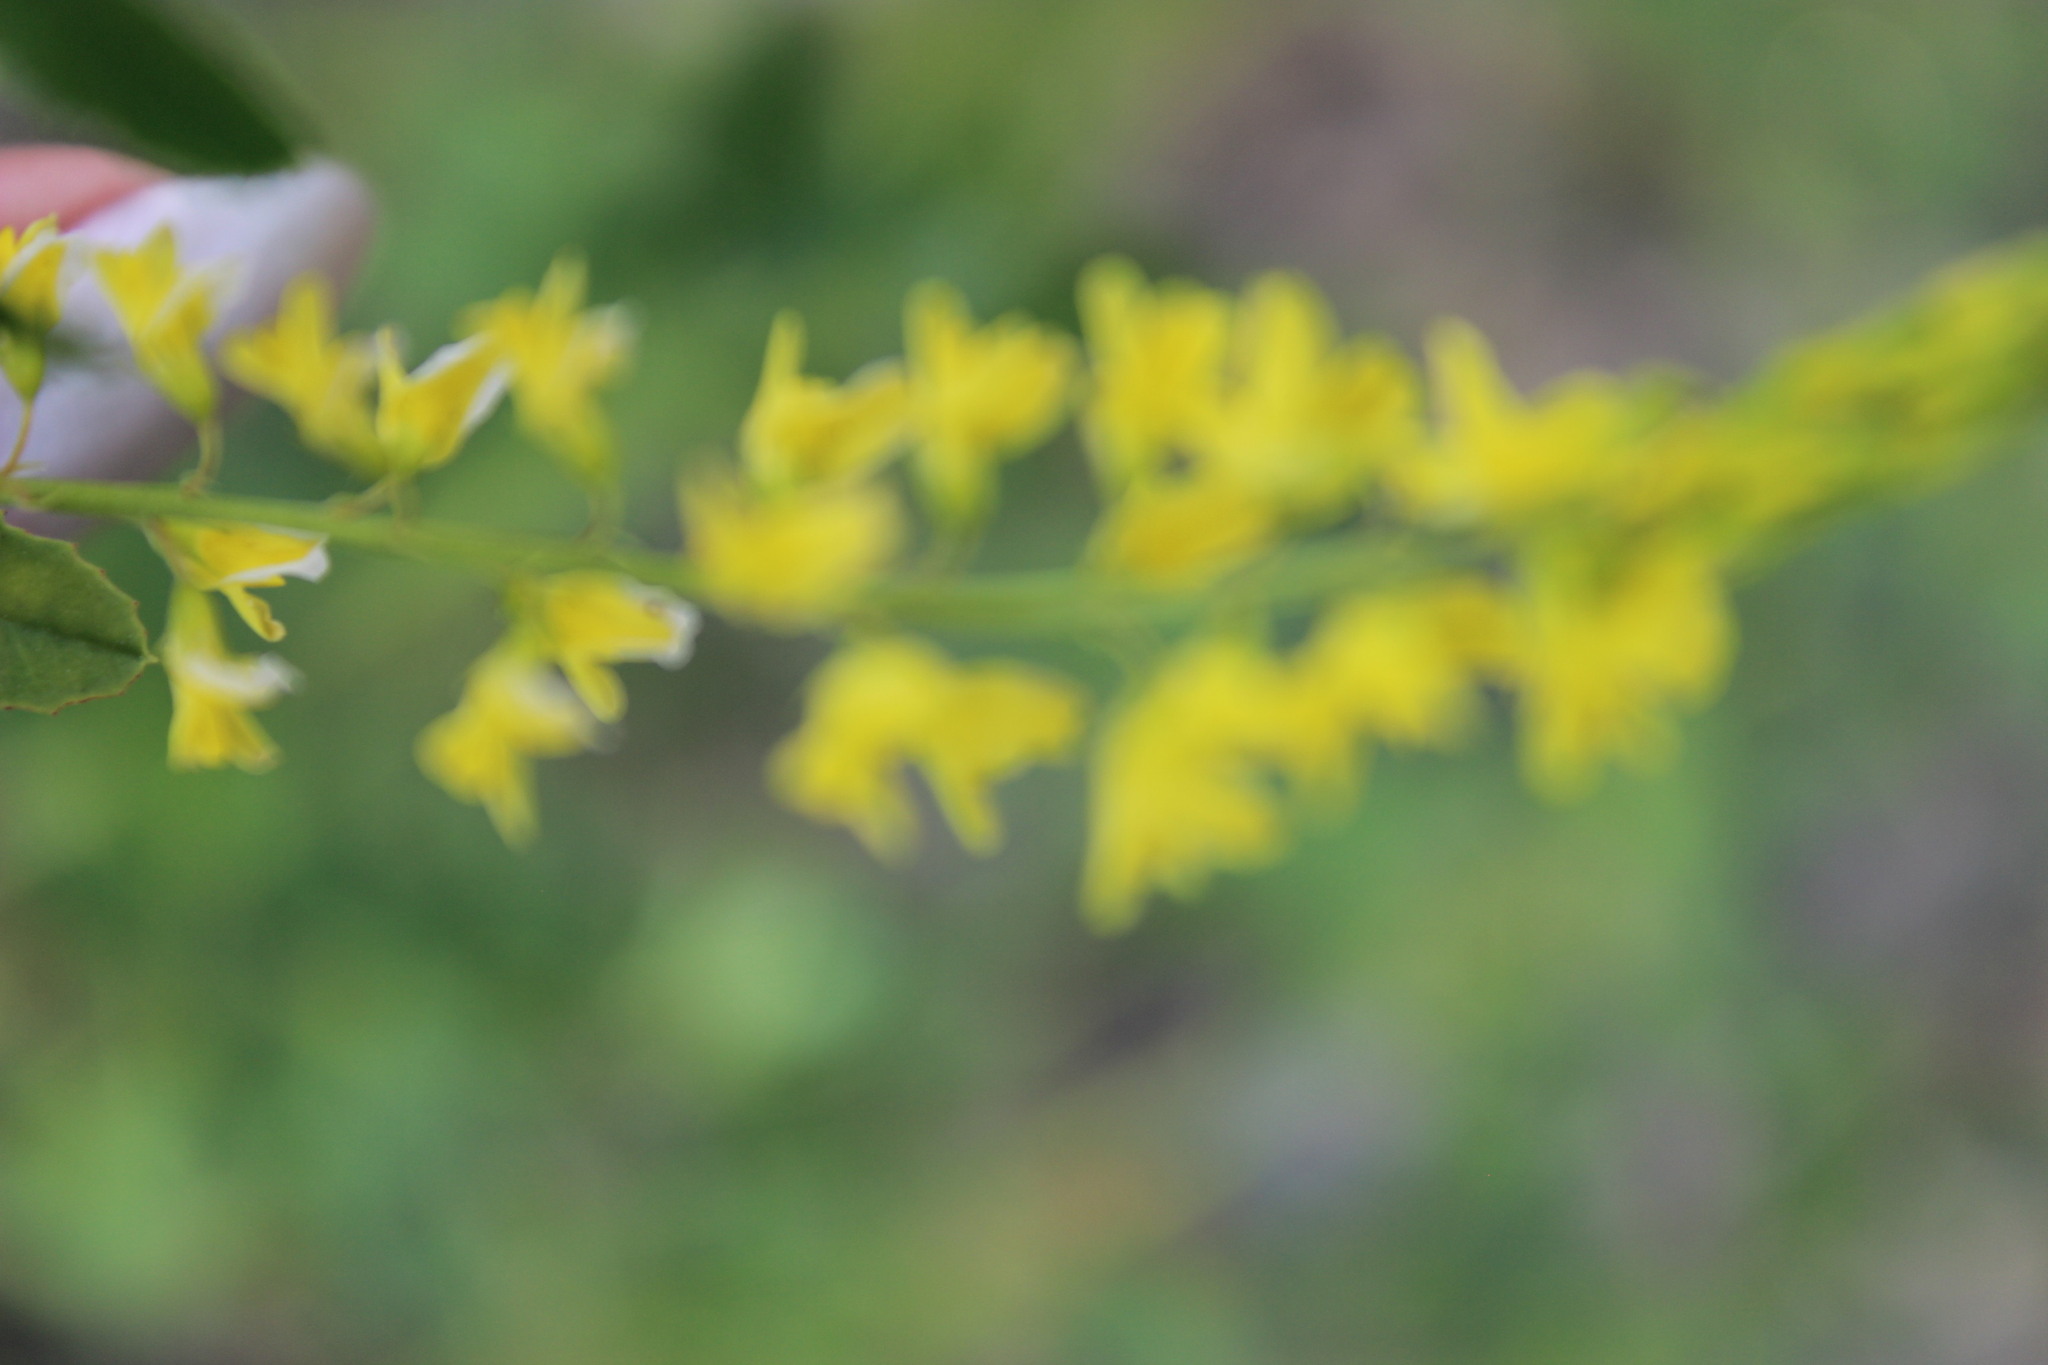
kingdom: Plantae
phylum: Tracheophyta
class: Magnoliopsida
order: Fabales
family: Fabaceae
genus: Melilotus
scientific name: Melilotus officinalis
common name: Sweetclover
